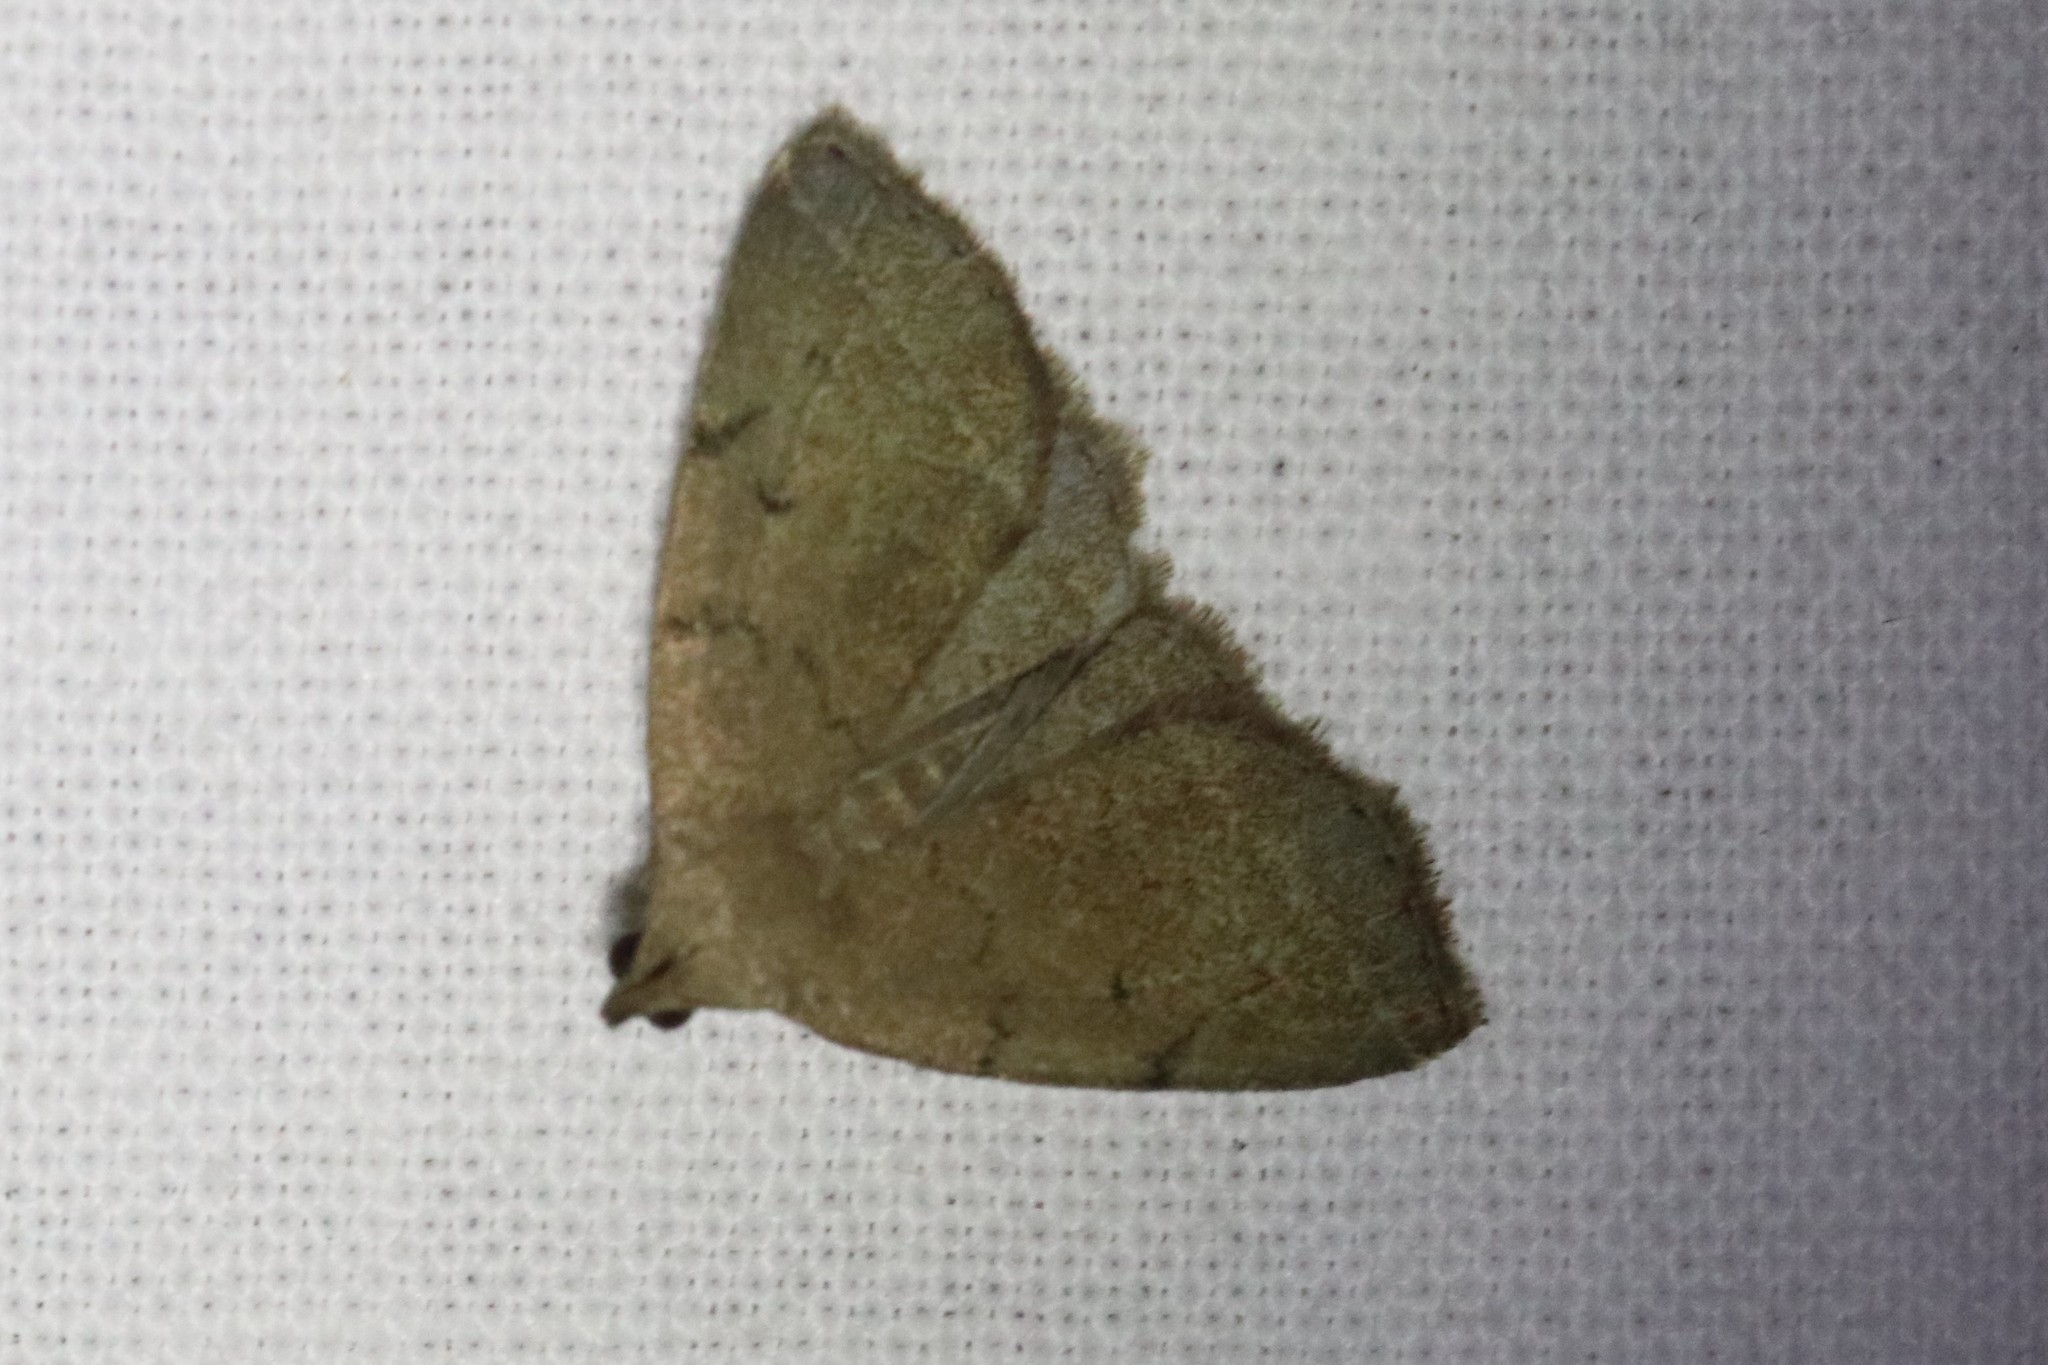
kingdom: Animalia
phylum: Arthropoda
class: Insecta
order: Lepidoptera
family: Erebidae
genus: Zanclognatha
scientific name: Zanclognatha protumnusalis
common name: Complex fan-foot
